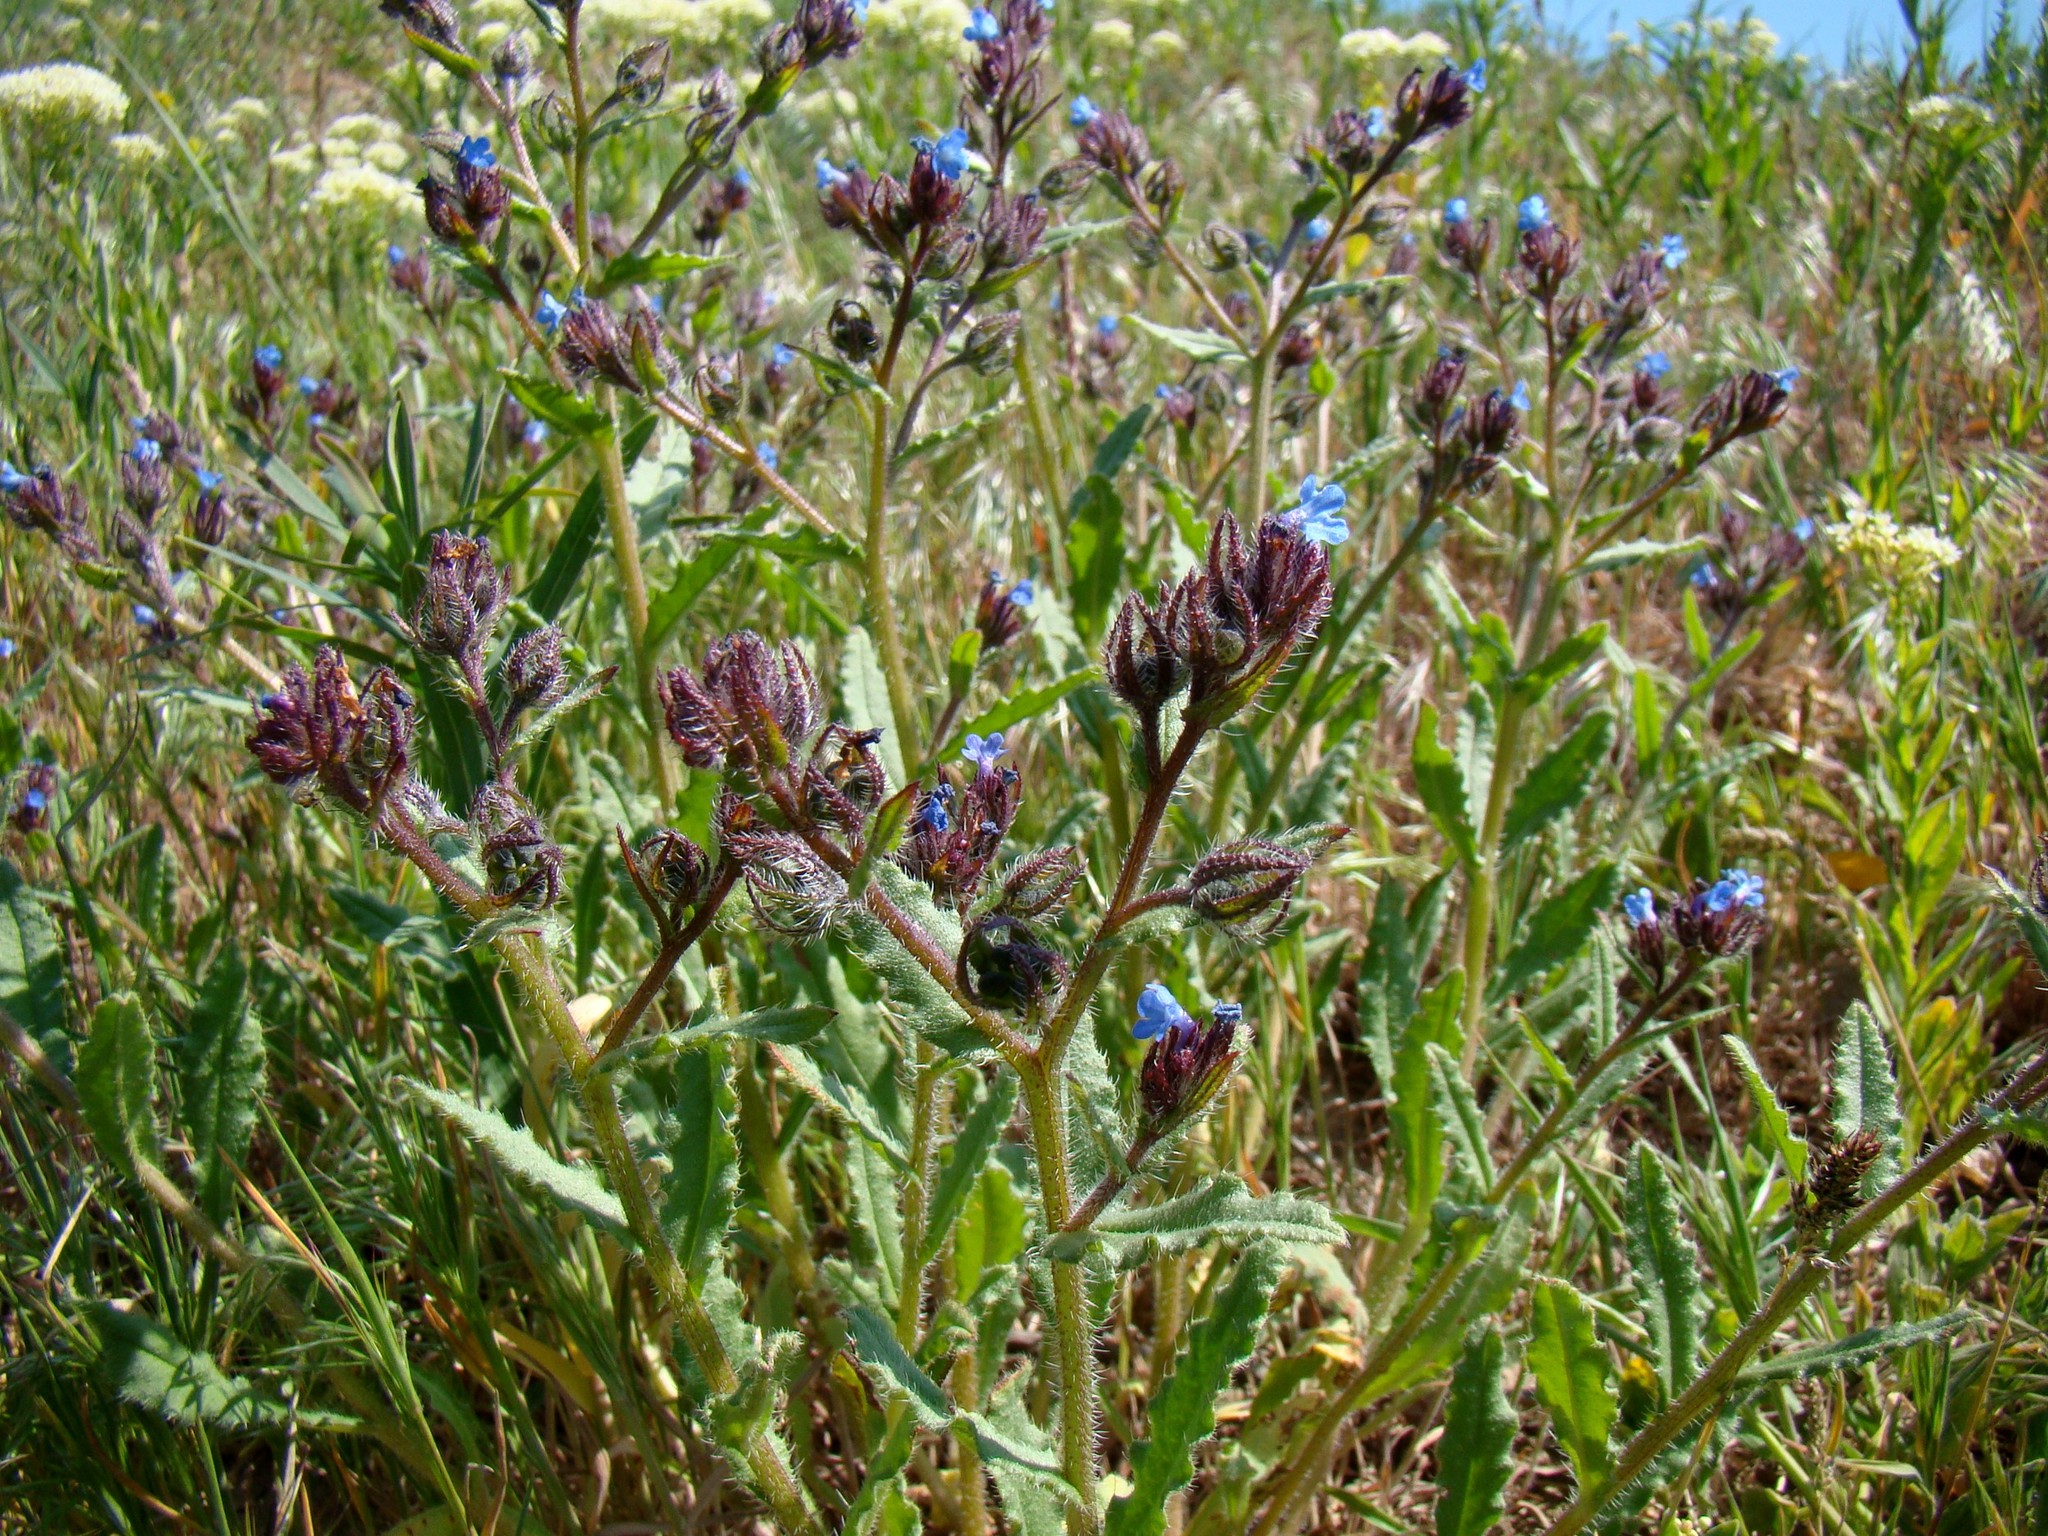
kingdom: Plantae
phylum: Tracheophyta
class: Magnoliopsida
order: Boraginales
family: Boraginaceae
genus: Lycopsis
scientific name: Lycopsis arvensis
